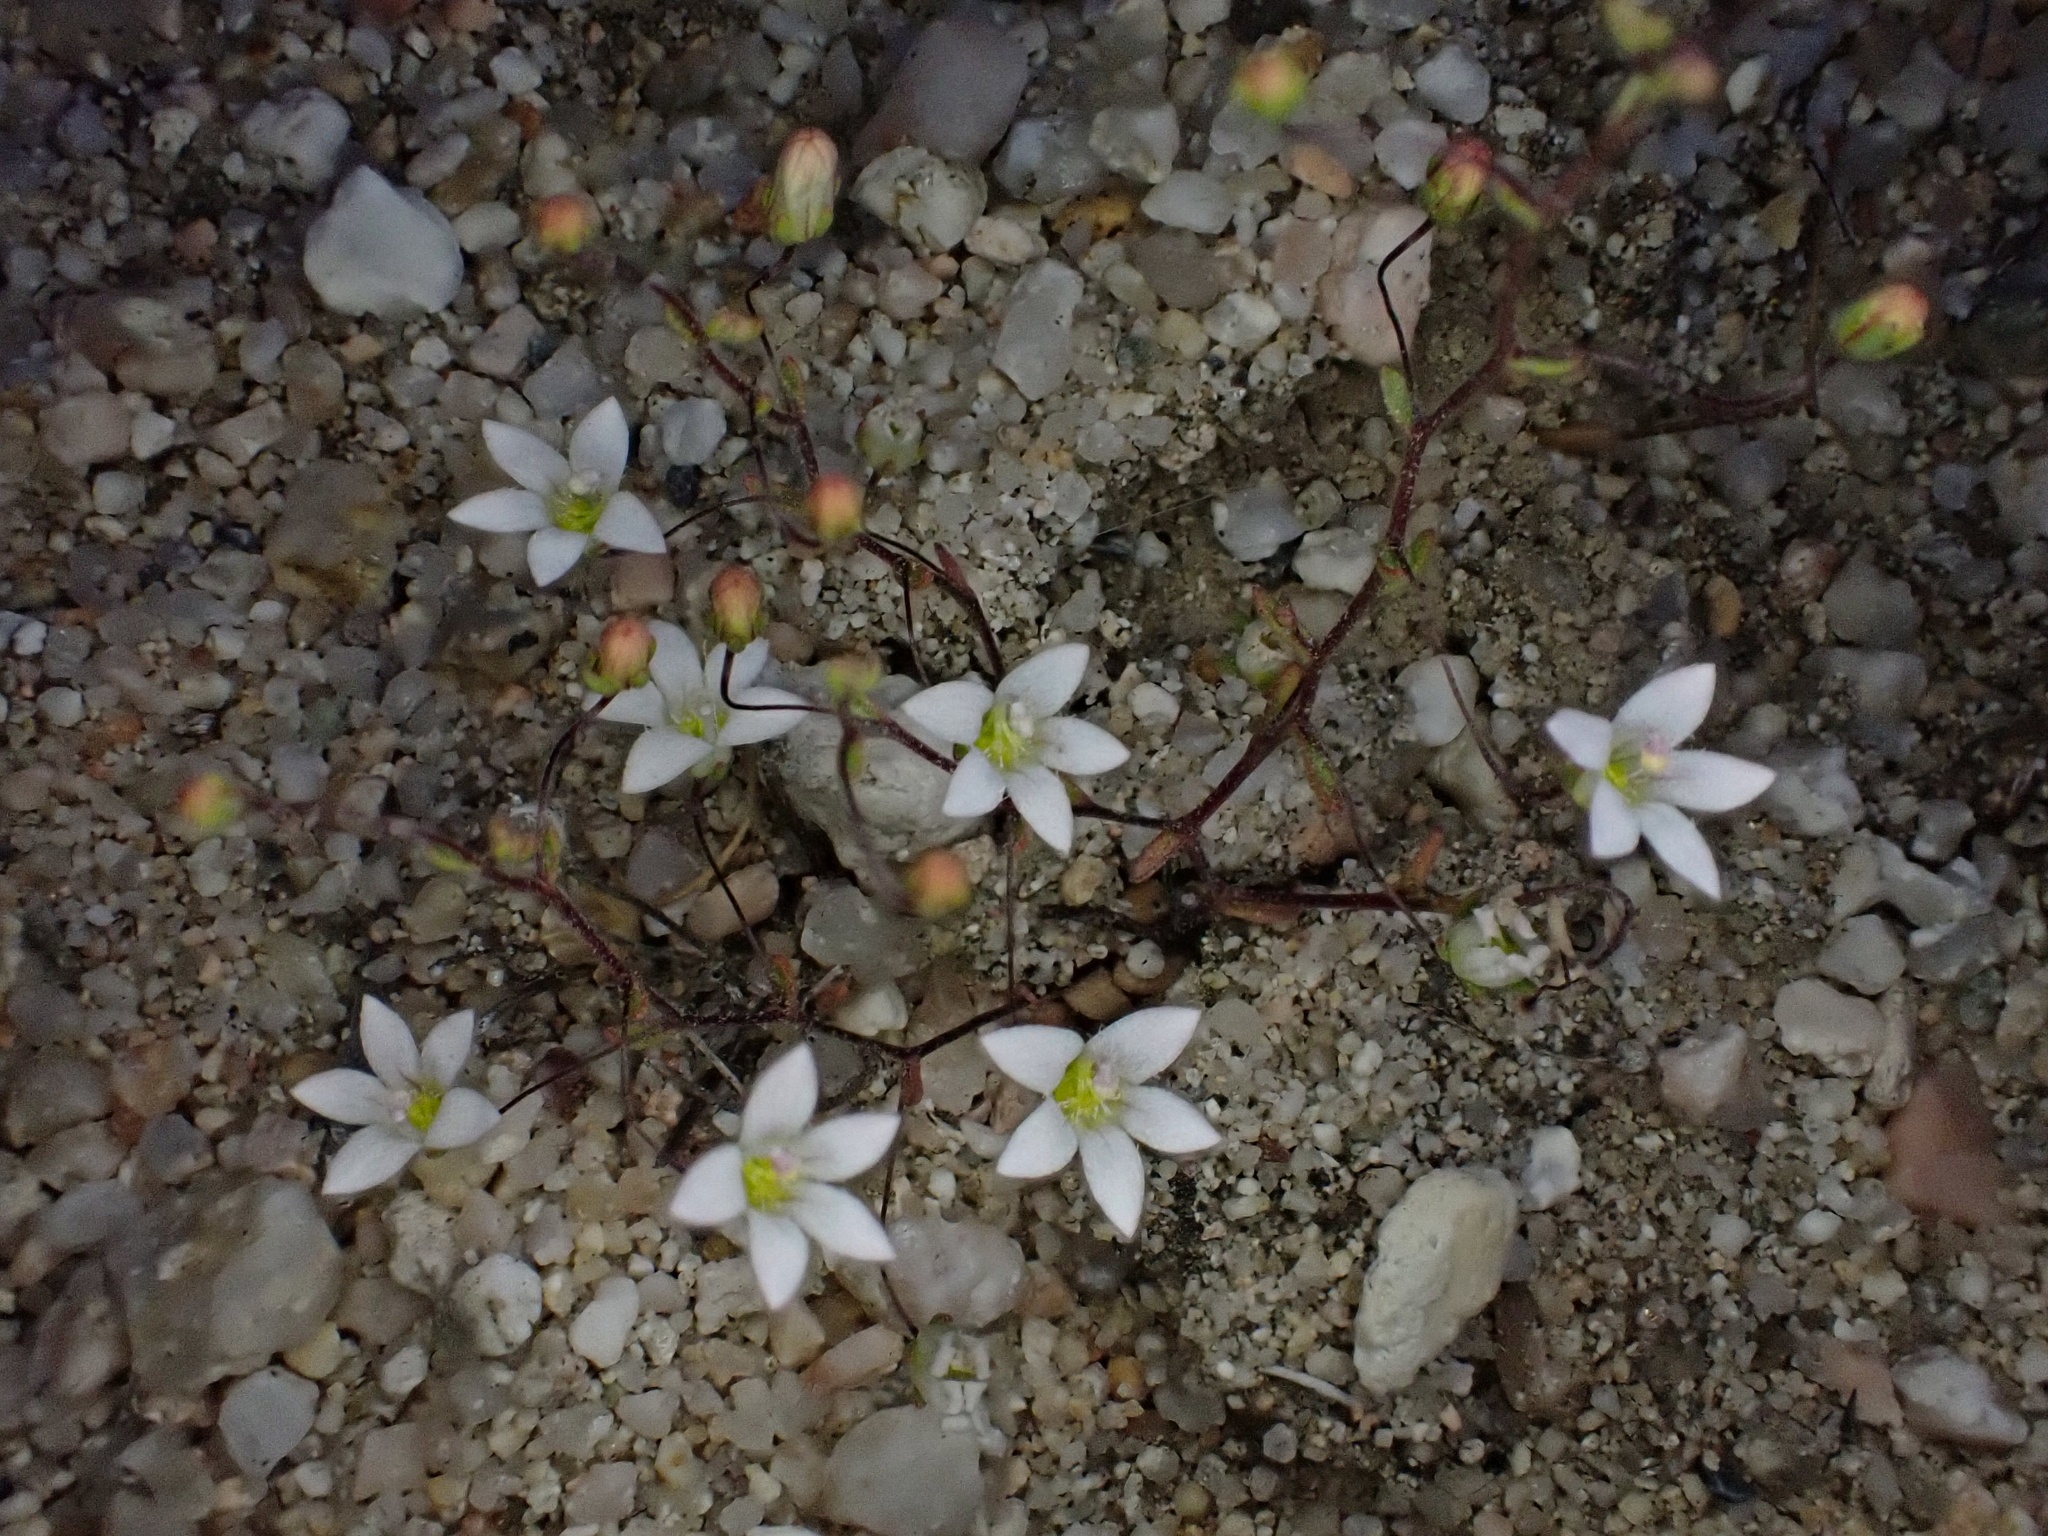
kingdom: Plantae
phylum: Tracheophyta
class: Magnoliopsida
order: Asterales
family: Campanulaceae
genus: Nemacladus
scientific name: Nemacladus gracilis
